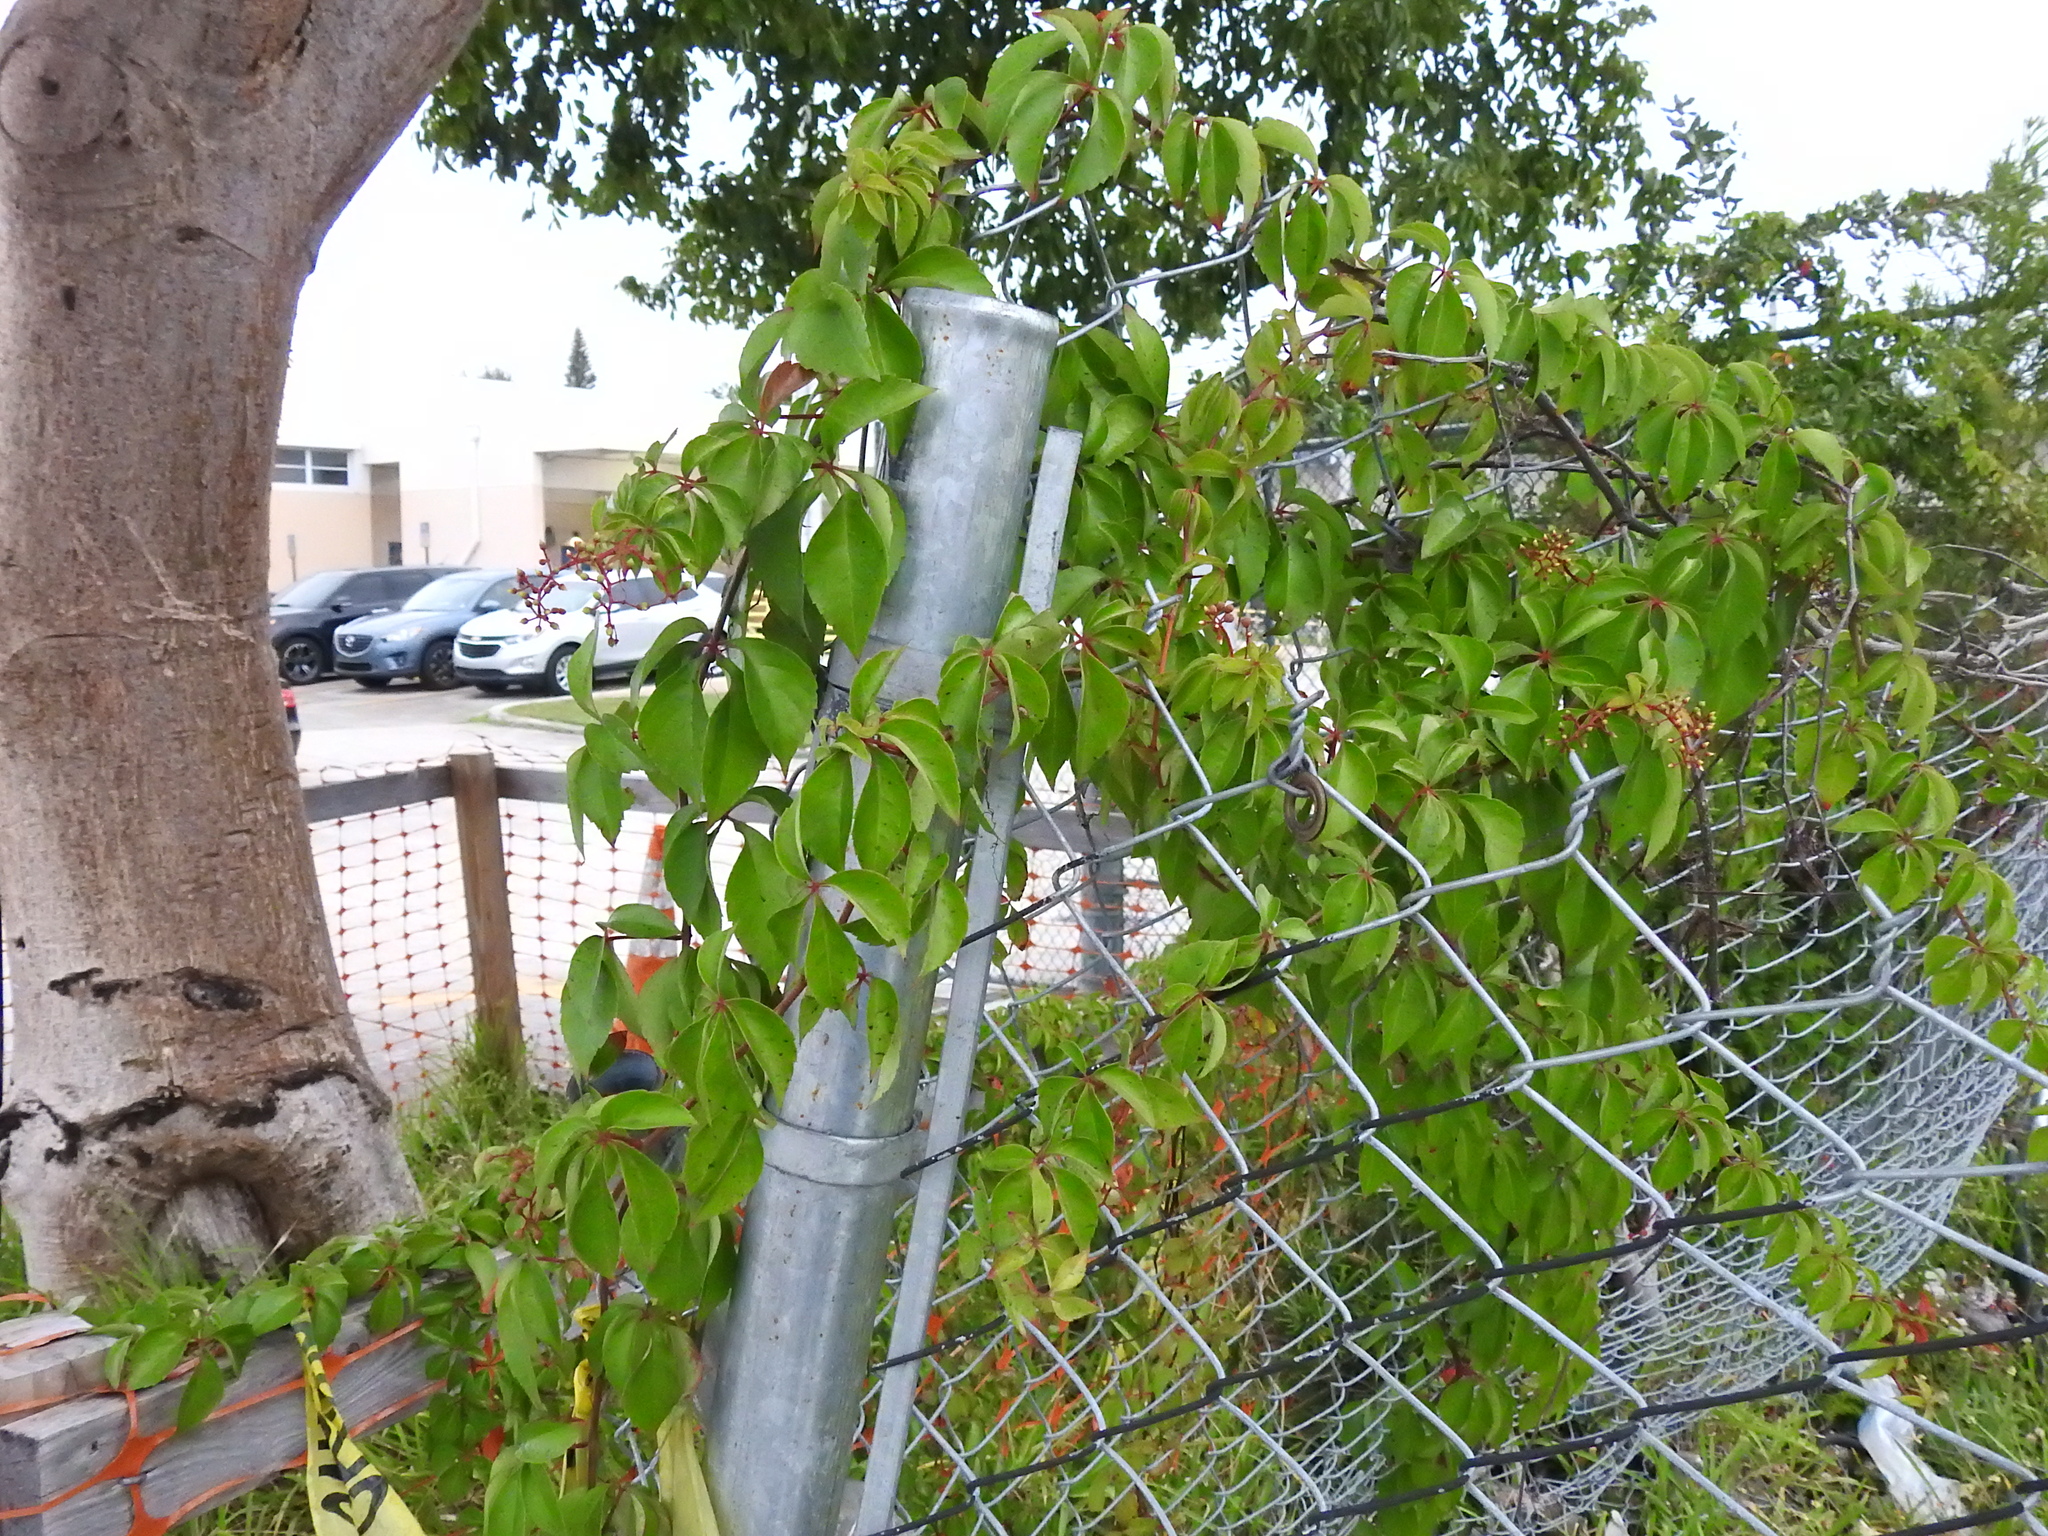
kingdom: Plantae
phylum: Tracheophyta
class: Magnoliopsida
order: Vitales
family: Vitaceae
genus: Parthenocissus
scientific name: Parthenocissus quinquefolia
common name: Virginia-creeper
